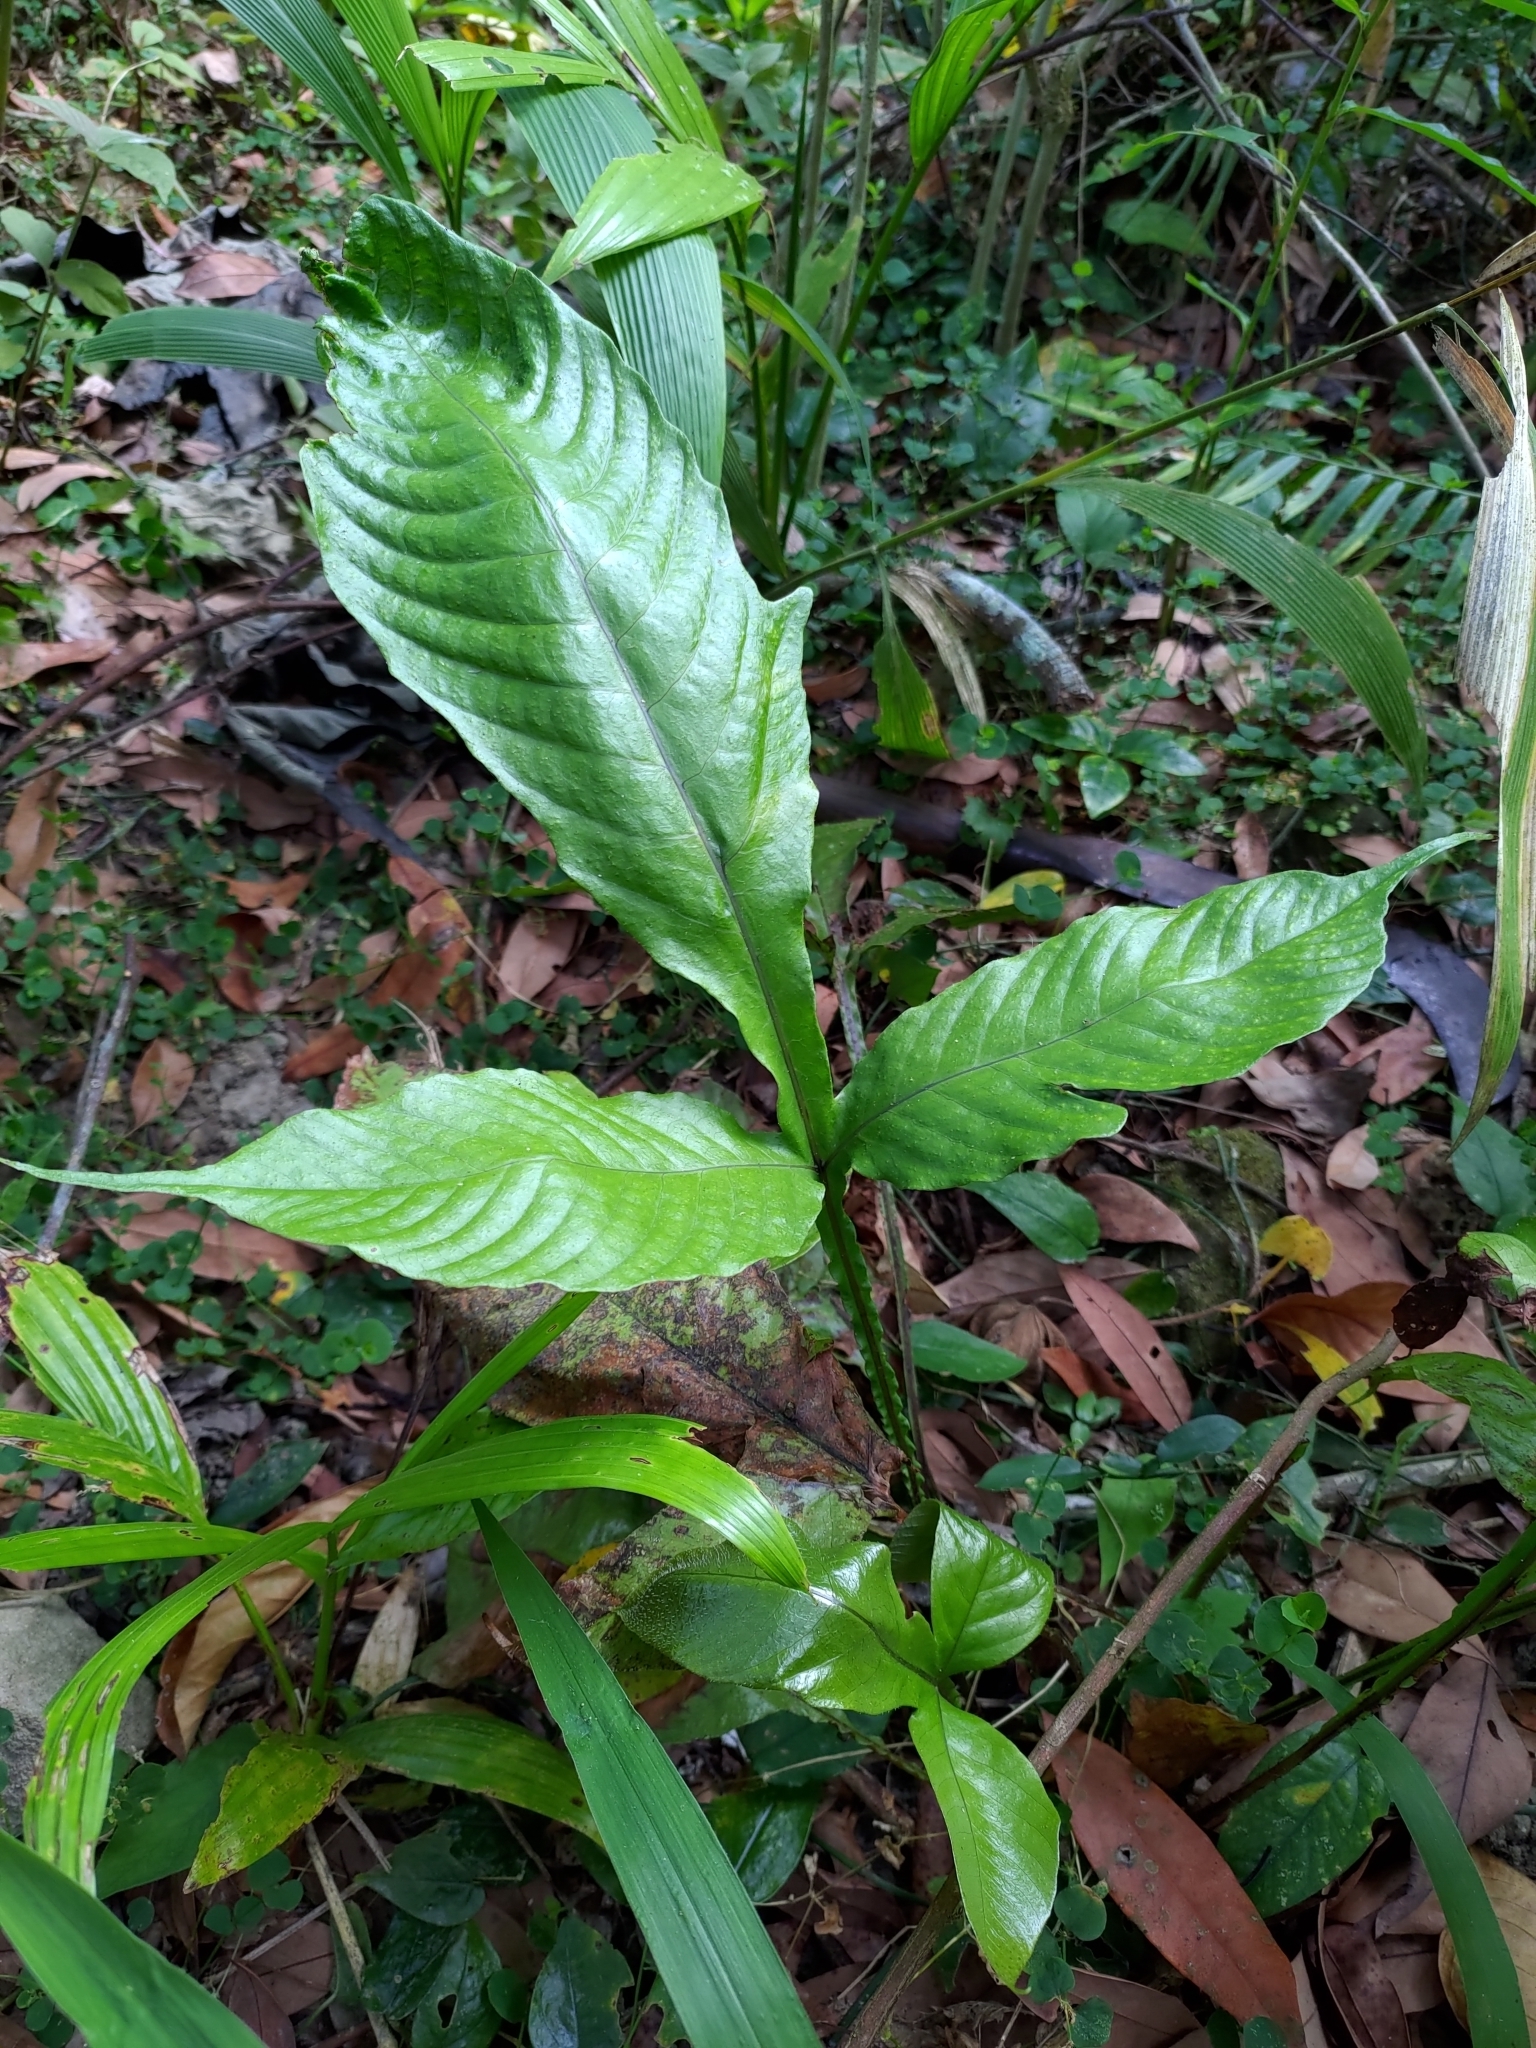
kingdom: Plantae
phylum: Tracheophyta
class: Polypodiopsida
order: Polypodiales
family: Tectariaceae
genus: Tectaria
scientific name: Tectaria fauriei
